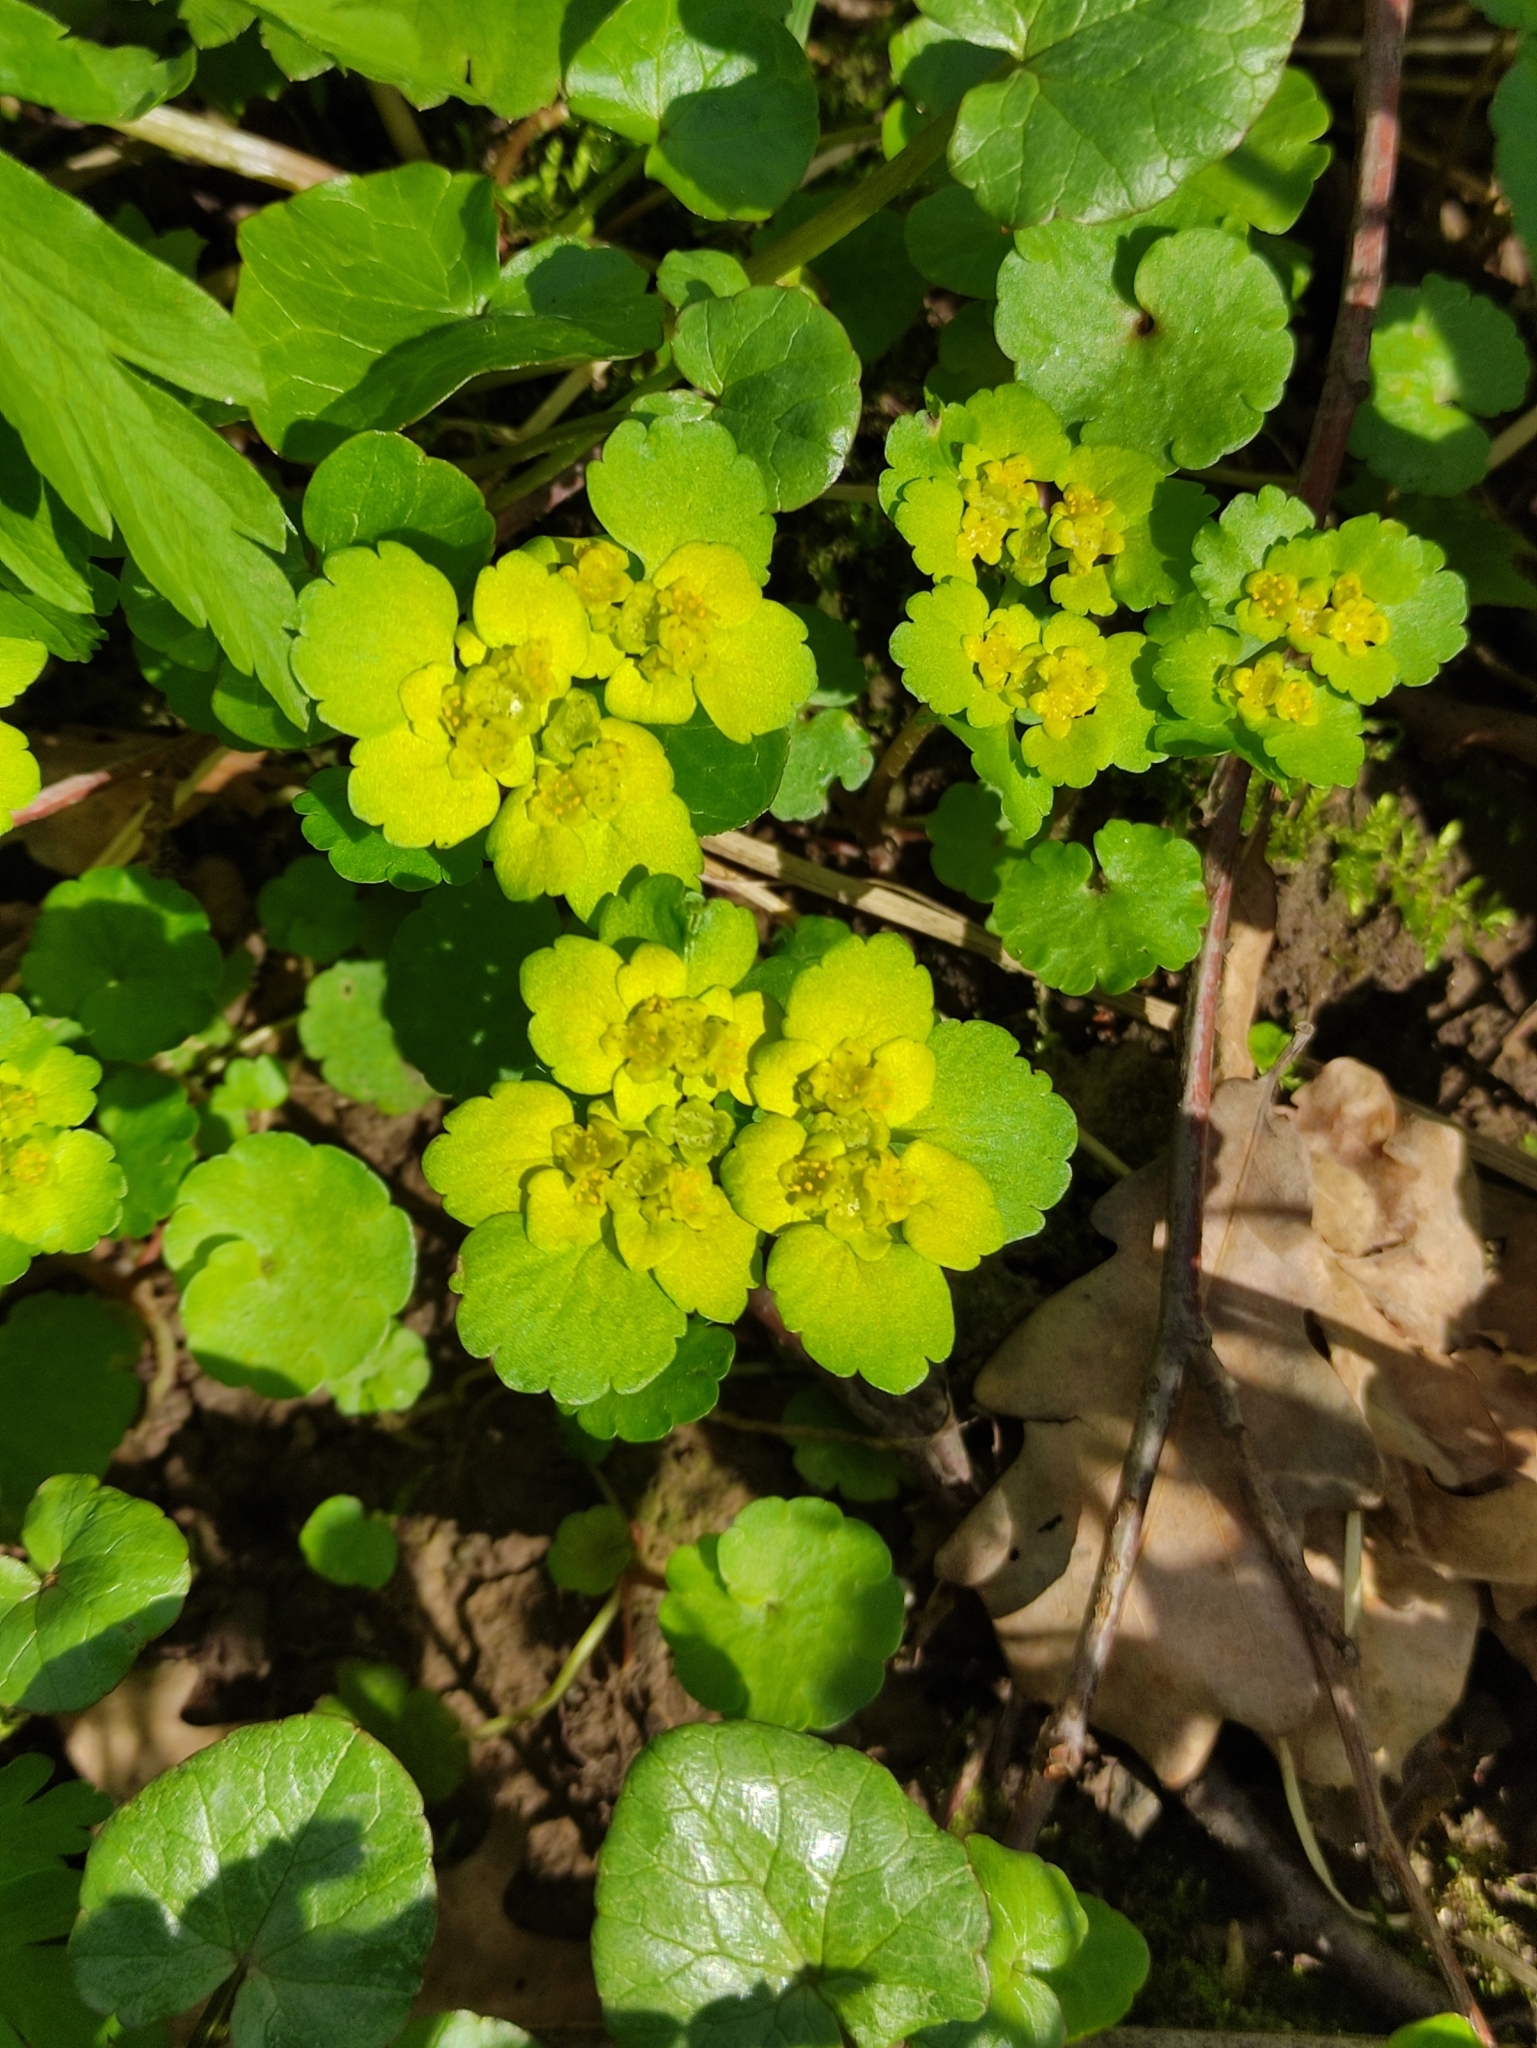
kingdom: Plantae
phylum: Tracheophyta
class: Magnoliopsida
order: Saxifragales
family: Saxifragaceae
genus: Chrysosplenium
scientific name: Chrysosplenium alternifolium
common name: Alternate-leaved golden-saxifrage
